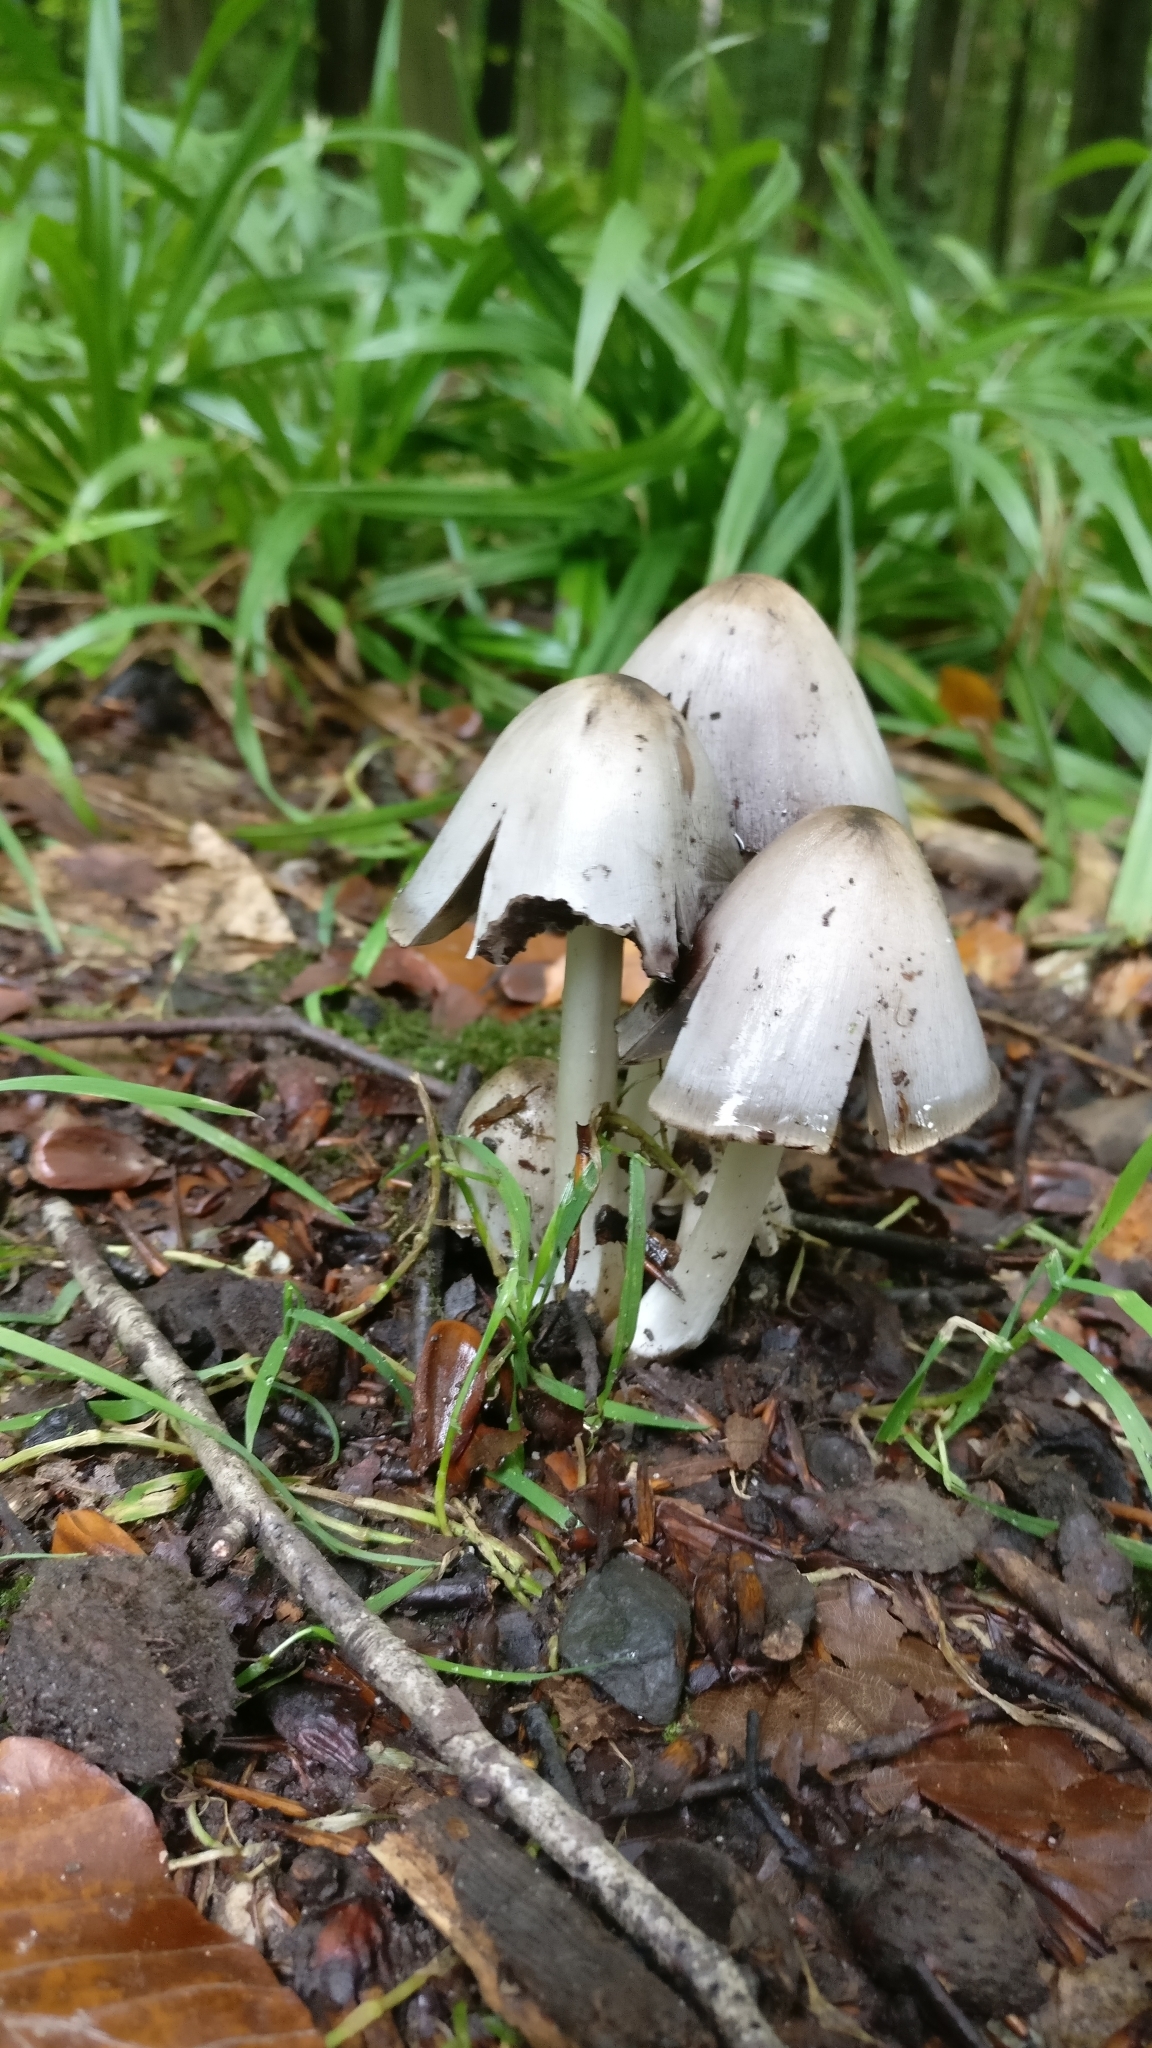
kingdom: Fungi
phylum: Basidiomycota
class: Agaricomycetes
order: Agaricales
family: Psathyrellaceae
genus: Coprinopsis
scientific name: Coprinopsis atramentaria
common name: Common ink-cap
